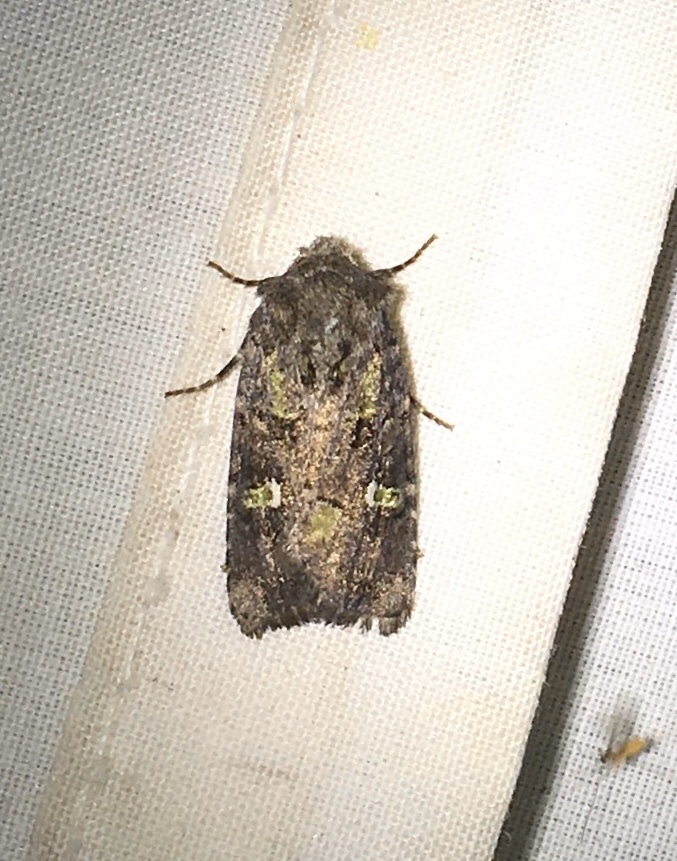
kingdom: Animalia
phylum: Arthropoda
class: Insecta
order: Lepidoptera
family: Noctuidae
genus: Lacinipolia
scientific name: Lacinipolia renigera
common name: Kidney-spotted minor
